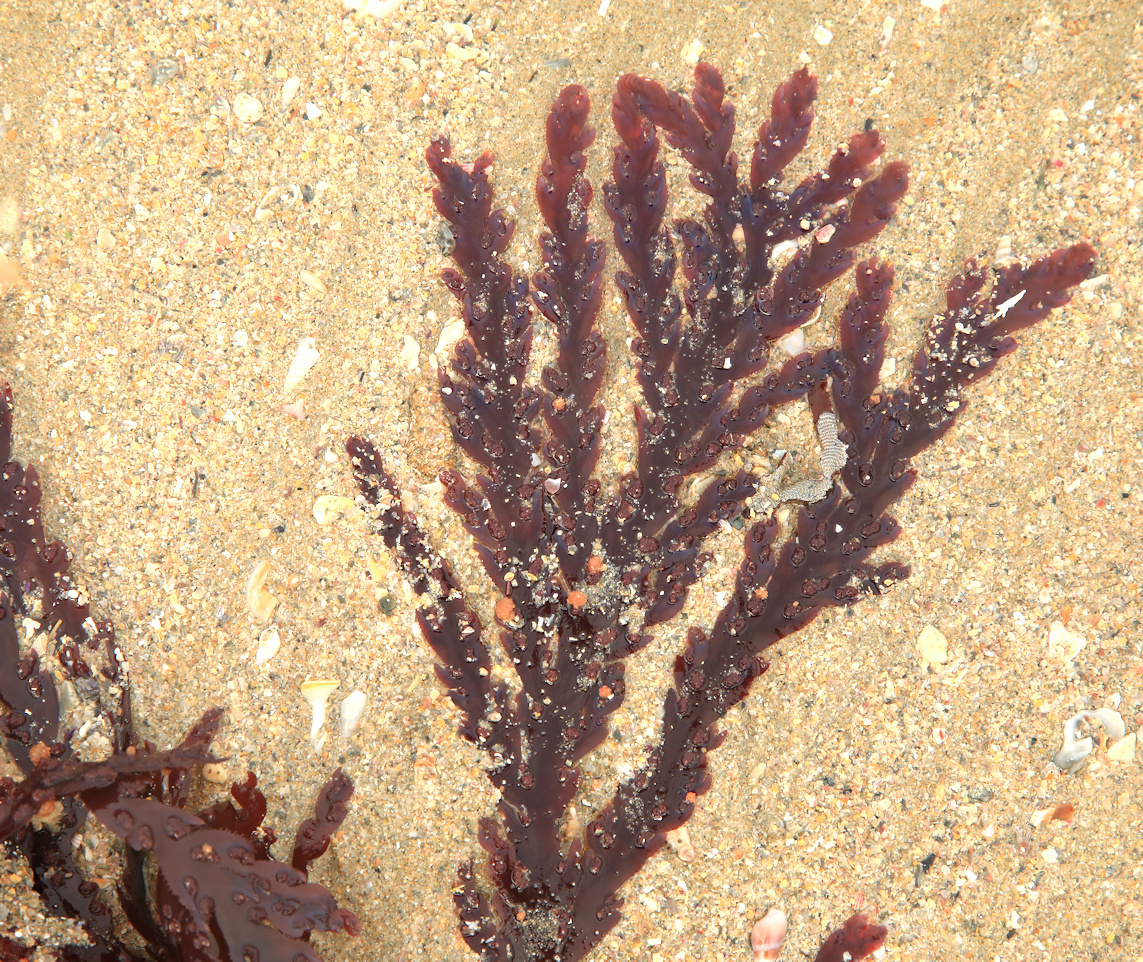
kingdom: Plantae
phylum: Rhodophyta
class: Florideophyceae
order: Plocamiales
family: Plocamiaceae
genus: Plocamium
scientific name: Plocamium corallorhiza
